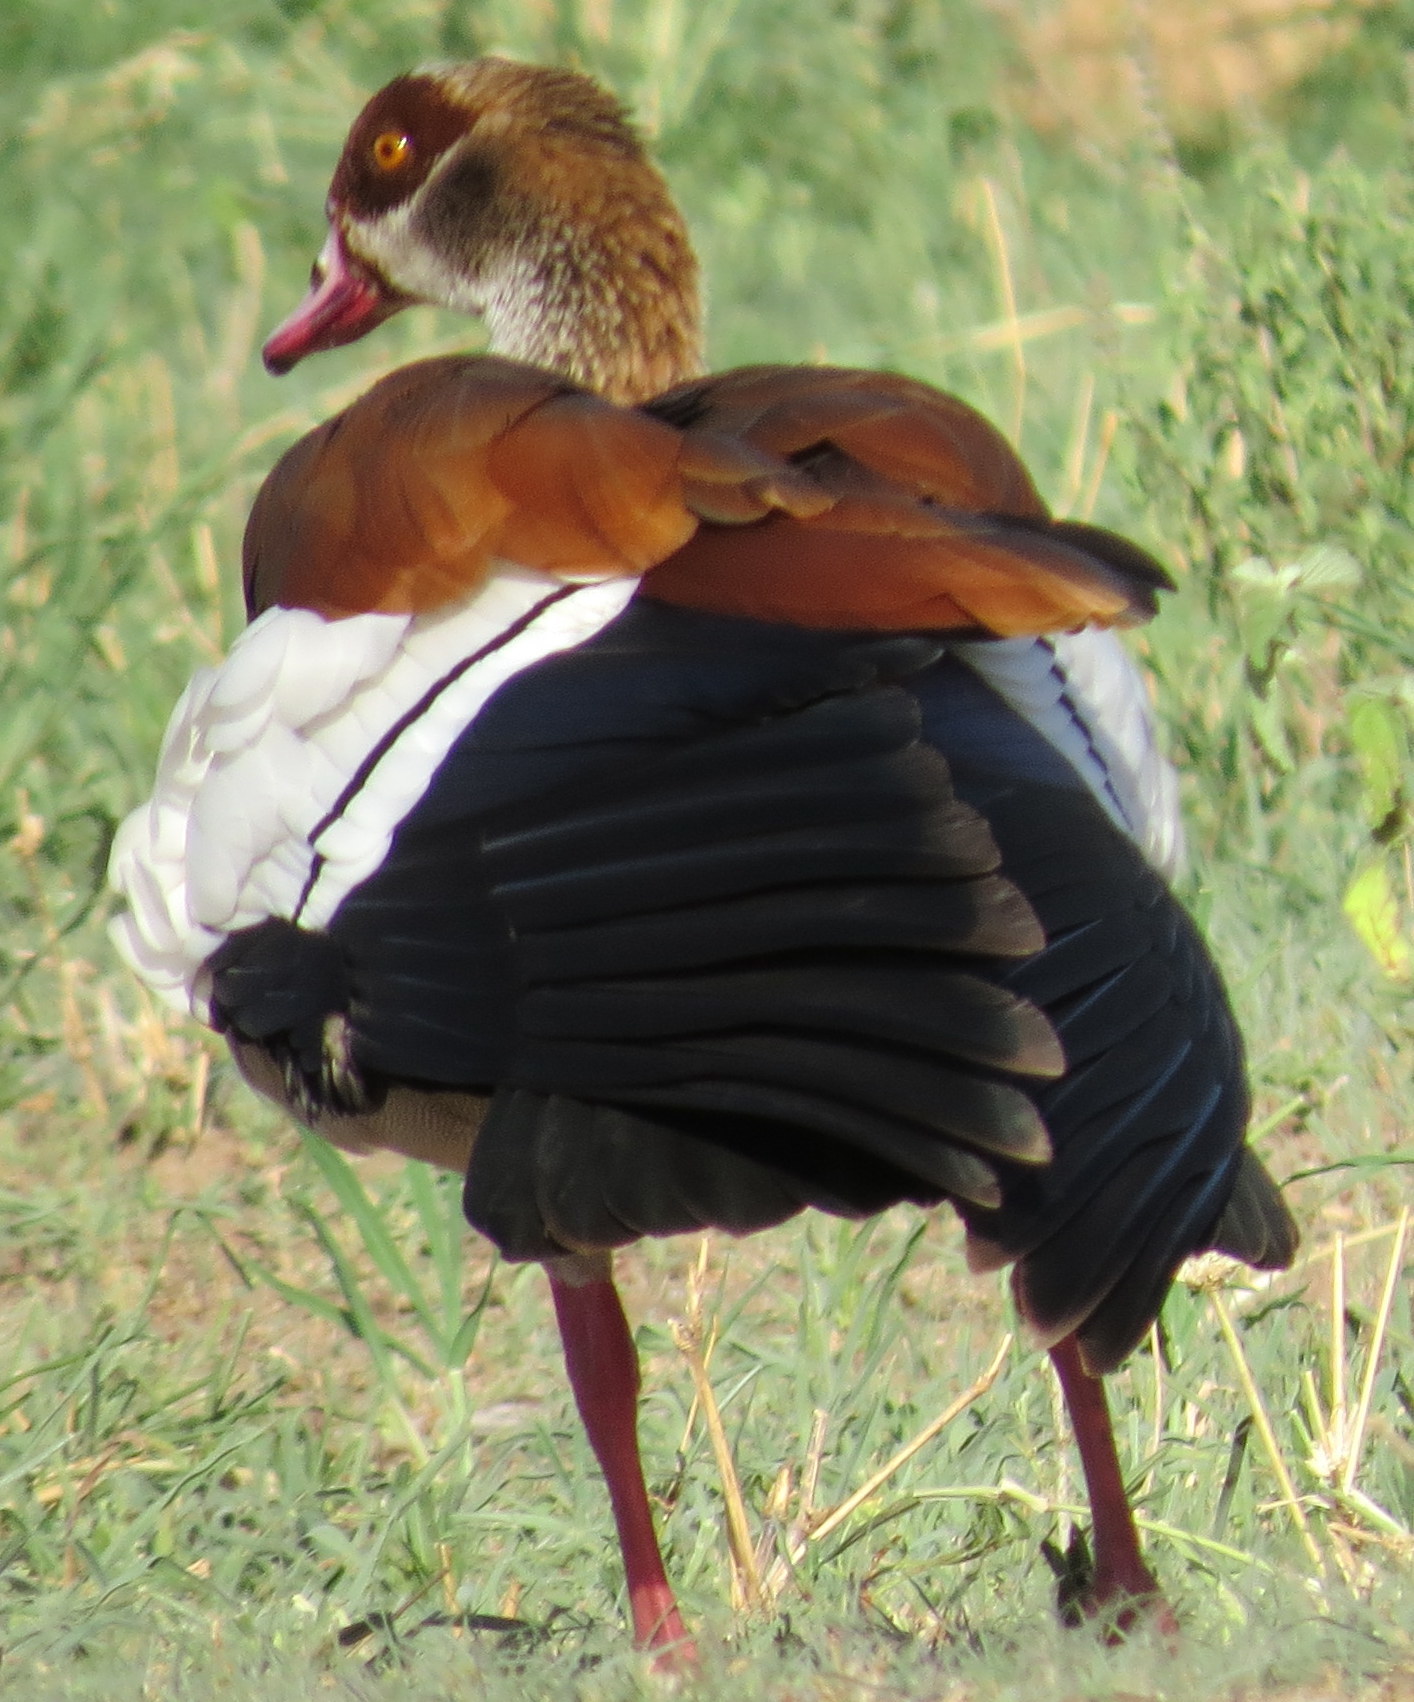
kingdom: Animalia
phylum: Chordata
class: Aves
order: Anseriformes
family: Anatidae
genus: Alopochen
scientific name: Alopochen aegyptiaca
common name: Egyptian goose
